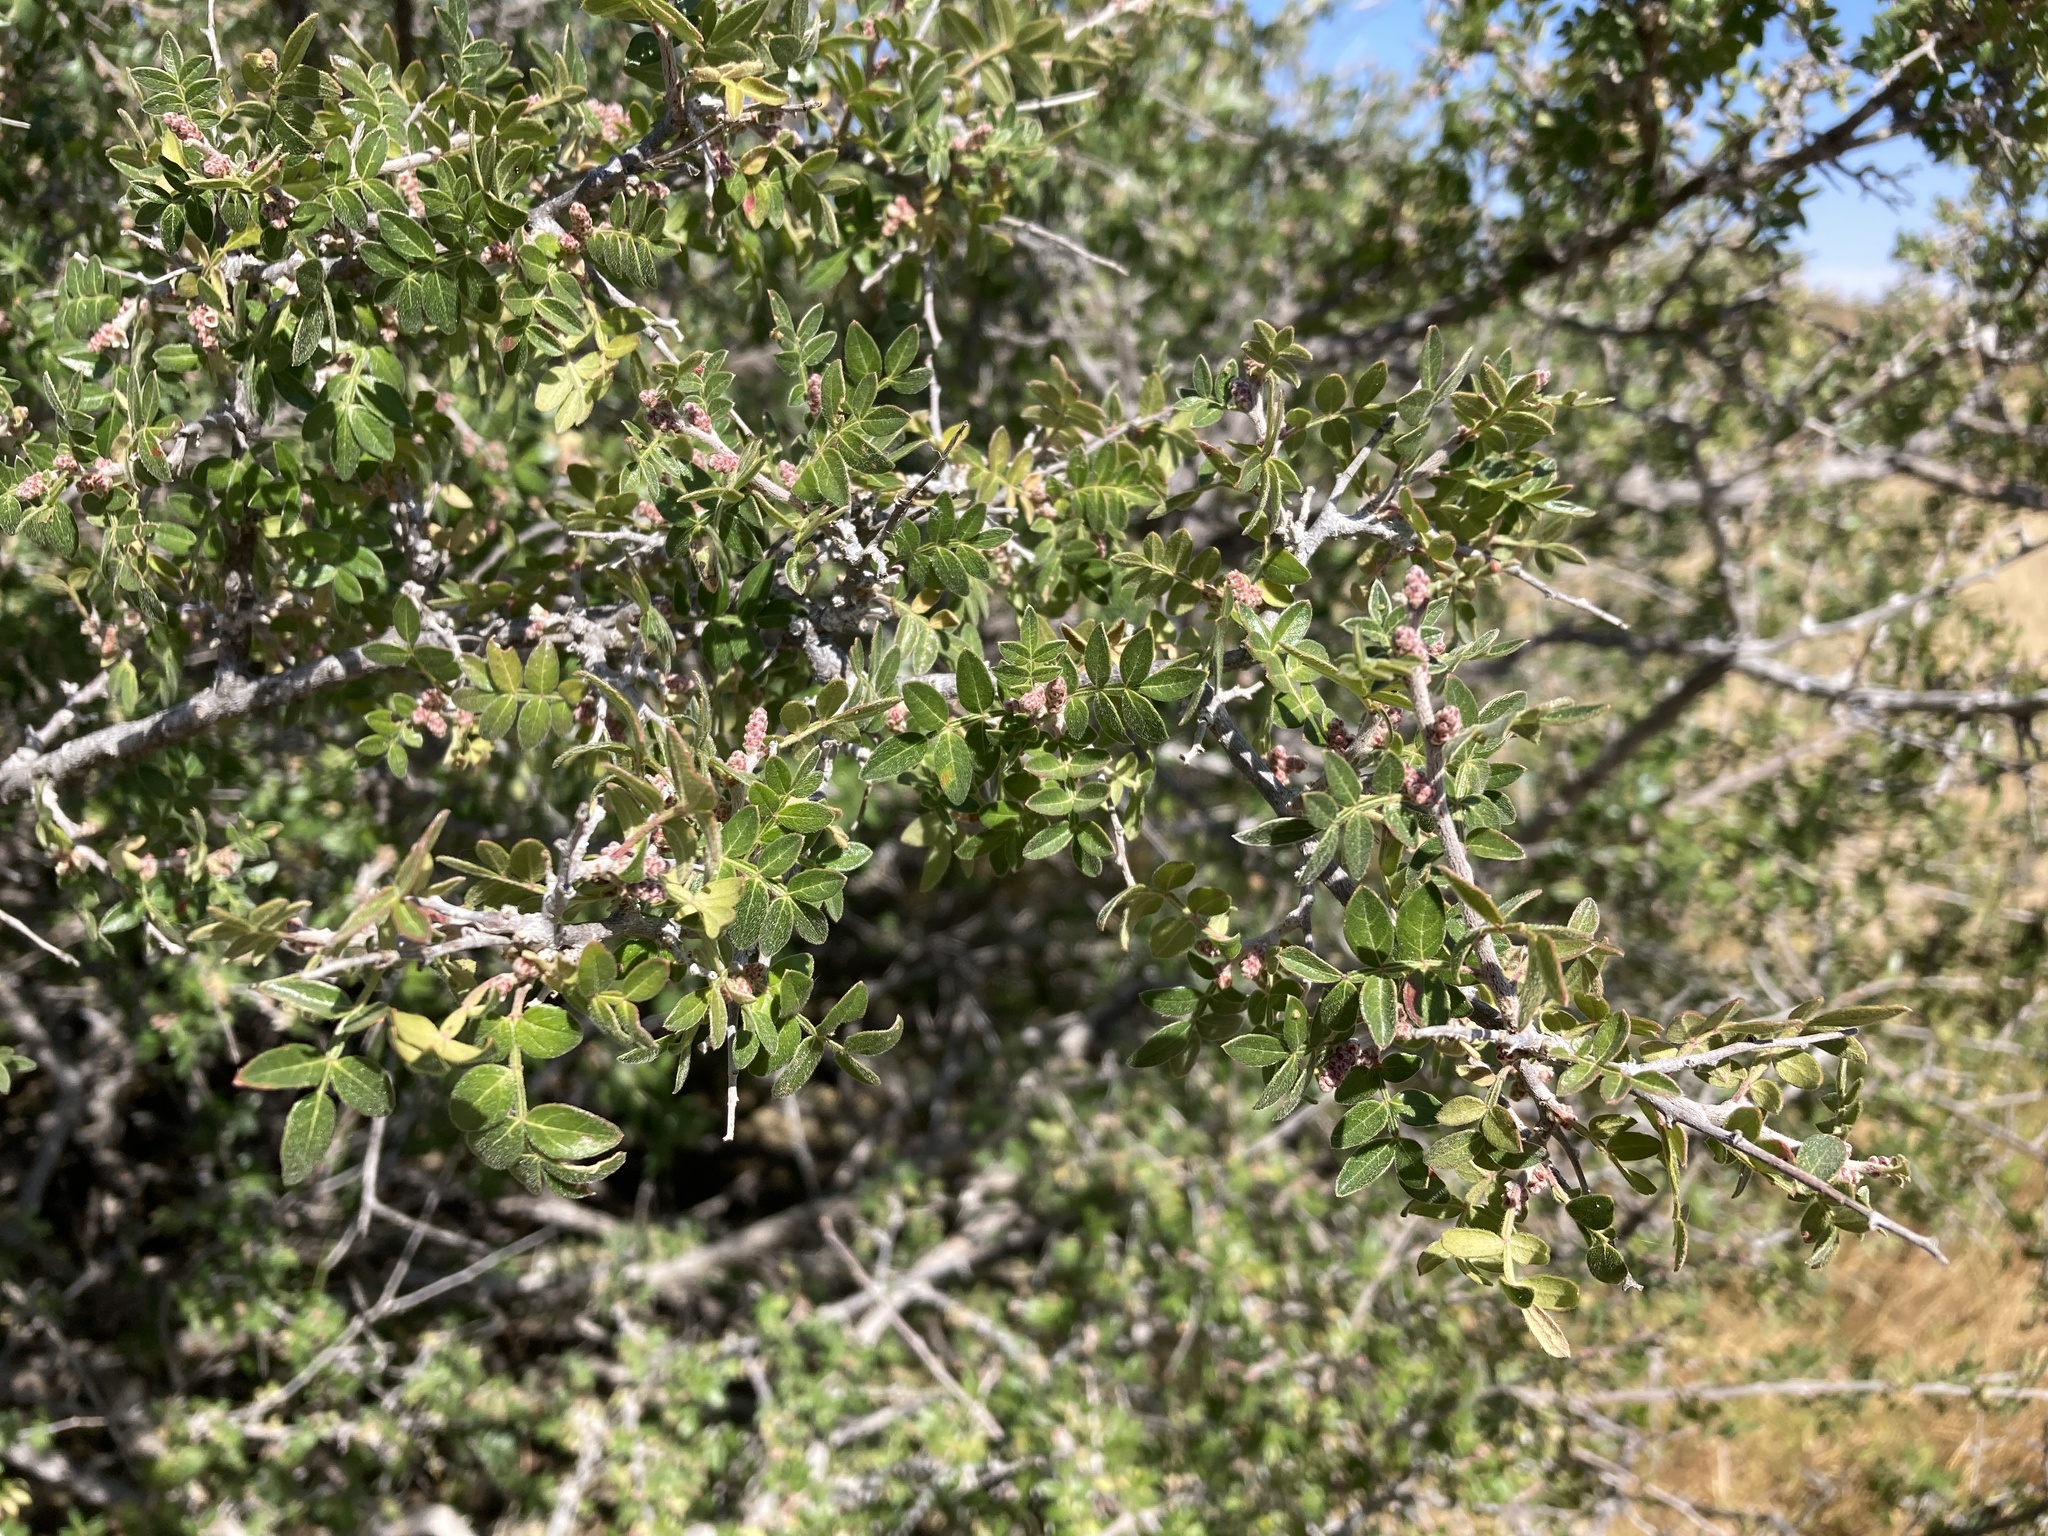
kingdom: Plantae
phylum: Tracheophyta
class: Magnoliopsida
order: Sapindales
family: Anacardiaceae
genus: Rhus
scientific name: Rhus microphylla
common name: Desert sumac
